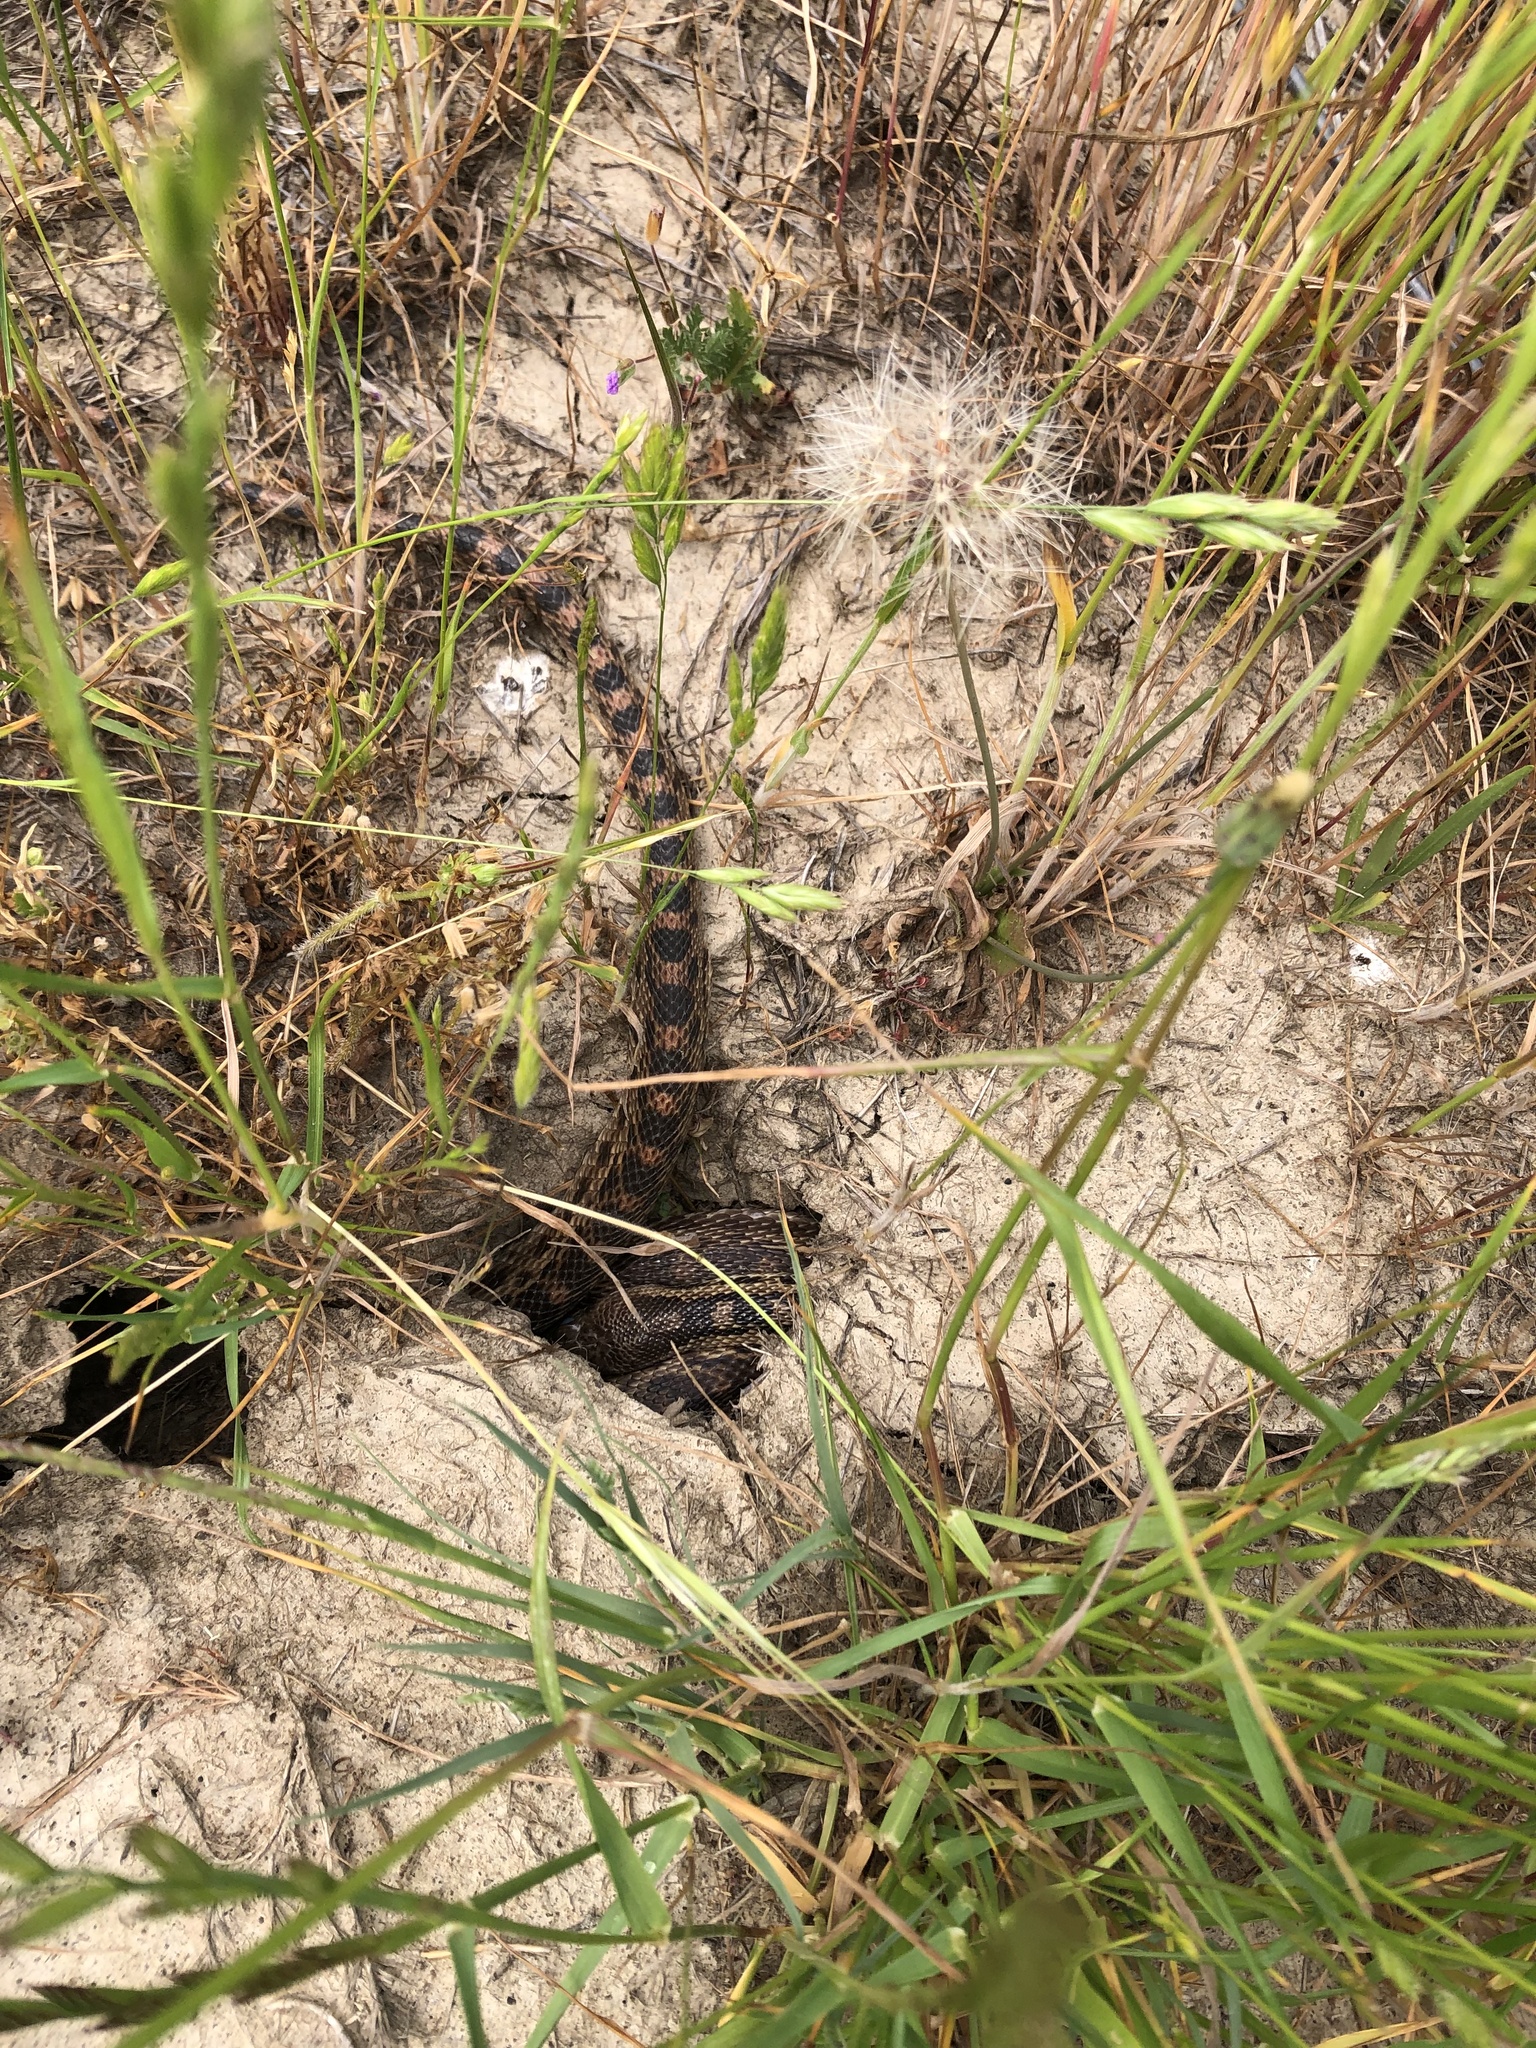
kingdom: Animalia
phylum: Chordata
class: Squamata
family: Colubridae
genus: Pituophis
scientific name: Pituophis catenifer
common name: Gopher snake
